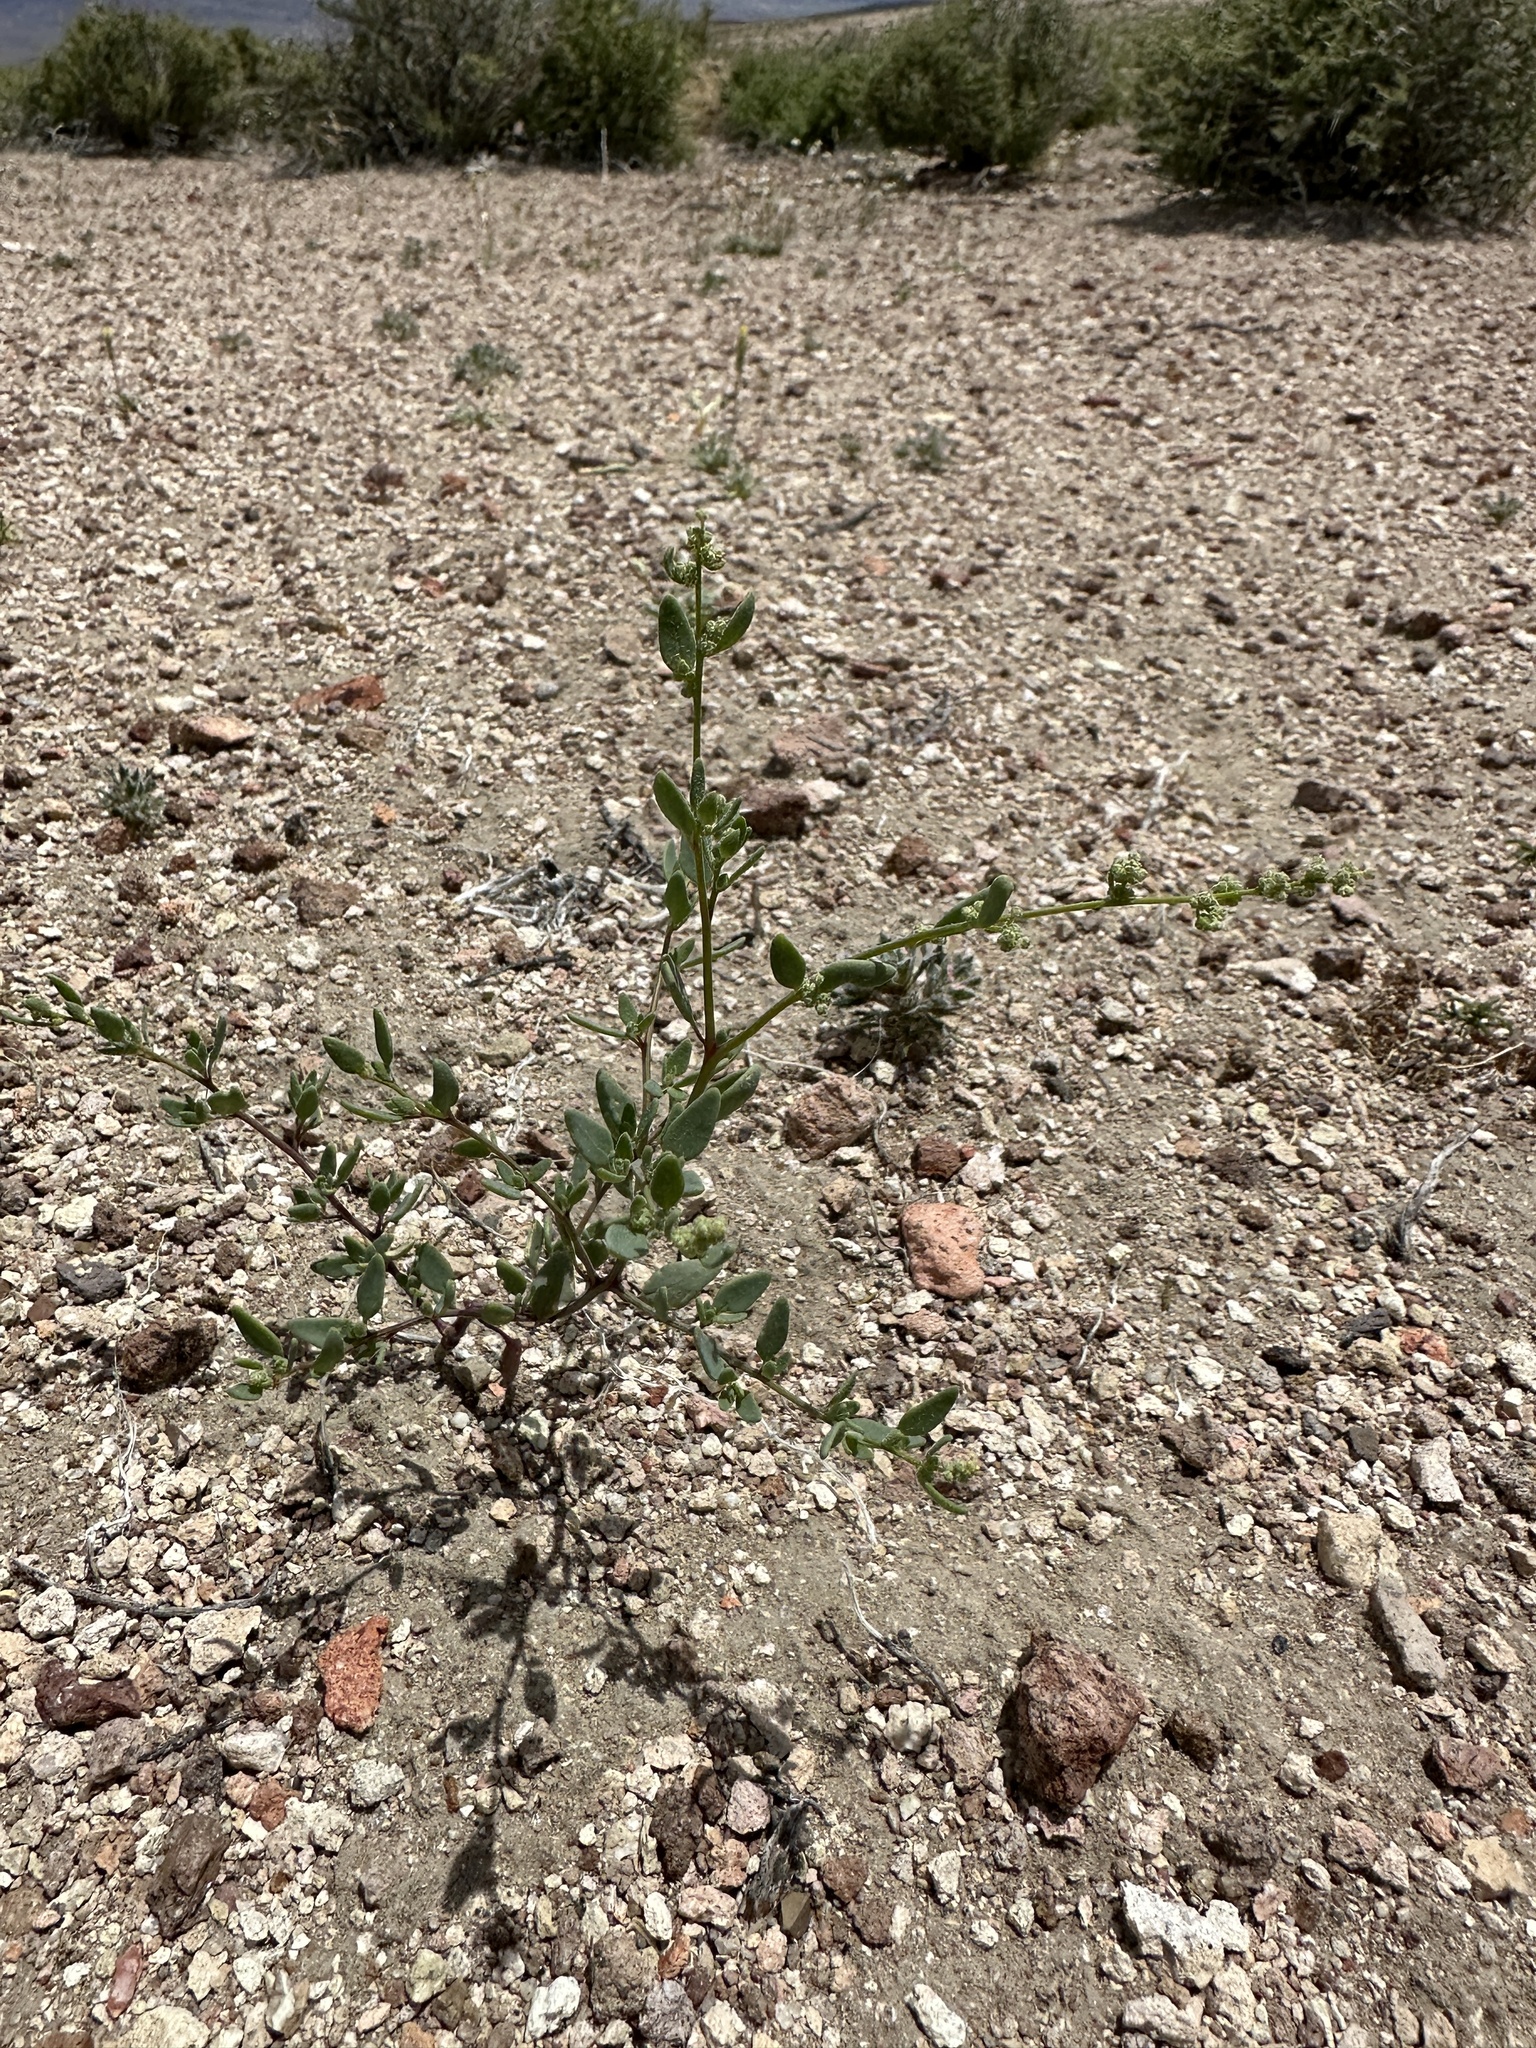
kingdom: Plantae
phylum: Tracheophyta
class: Magnoliopsida
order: Caryophyllales
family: Amaranthaceae
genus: Chenopodium
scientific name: Chenopodium nevadense
